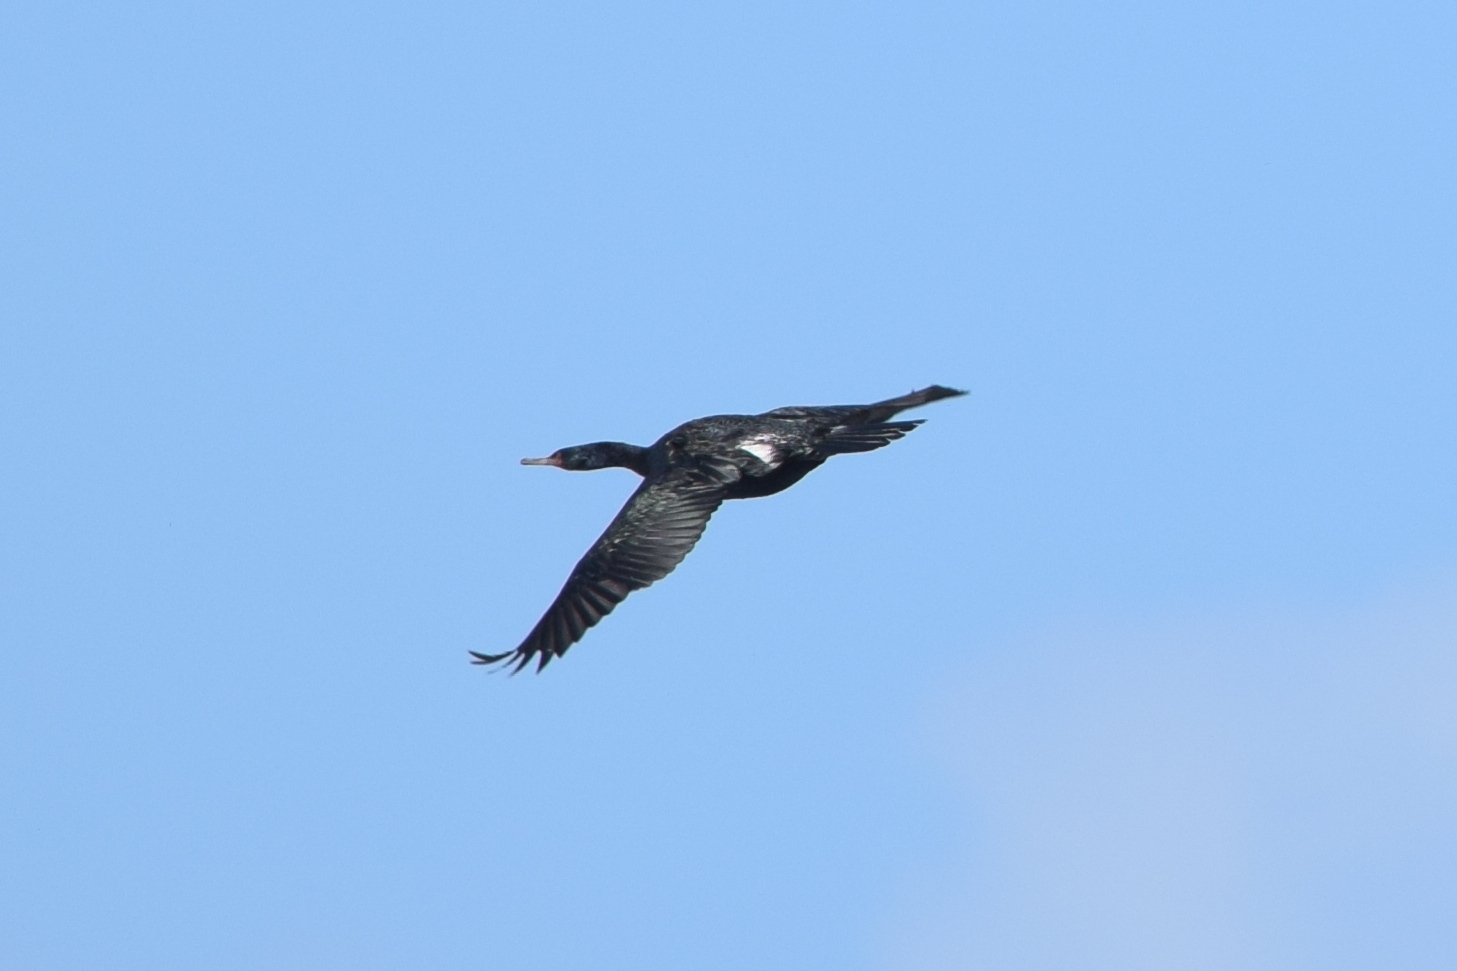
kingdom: Animalia
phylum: Chordata
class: Aves
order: Suliformes
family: Phalacrocoracidae
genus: Phalacrocorax
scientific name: Phalacrocorax pelagicus
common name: Pelagic cormorant
